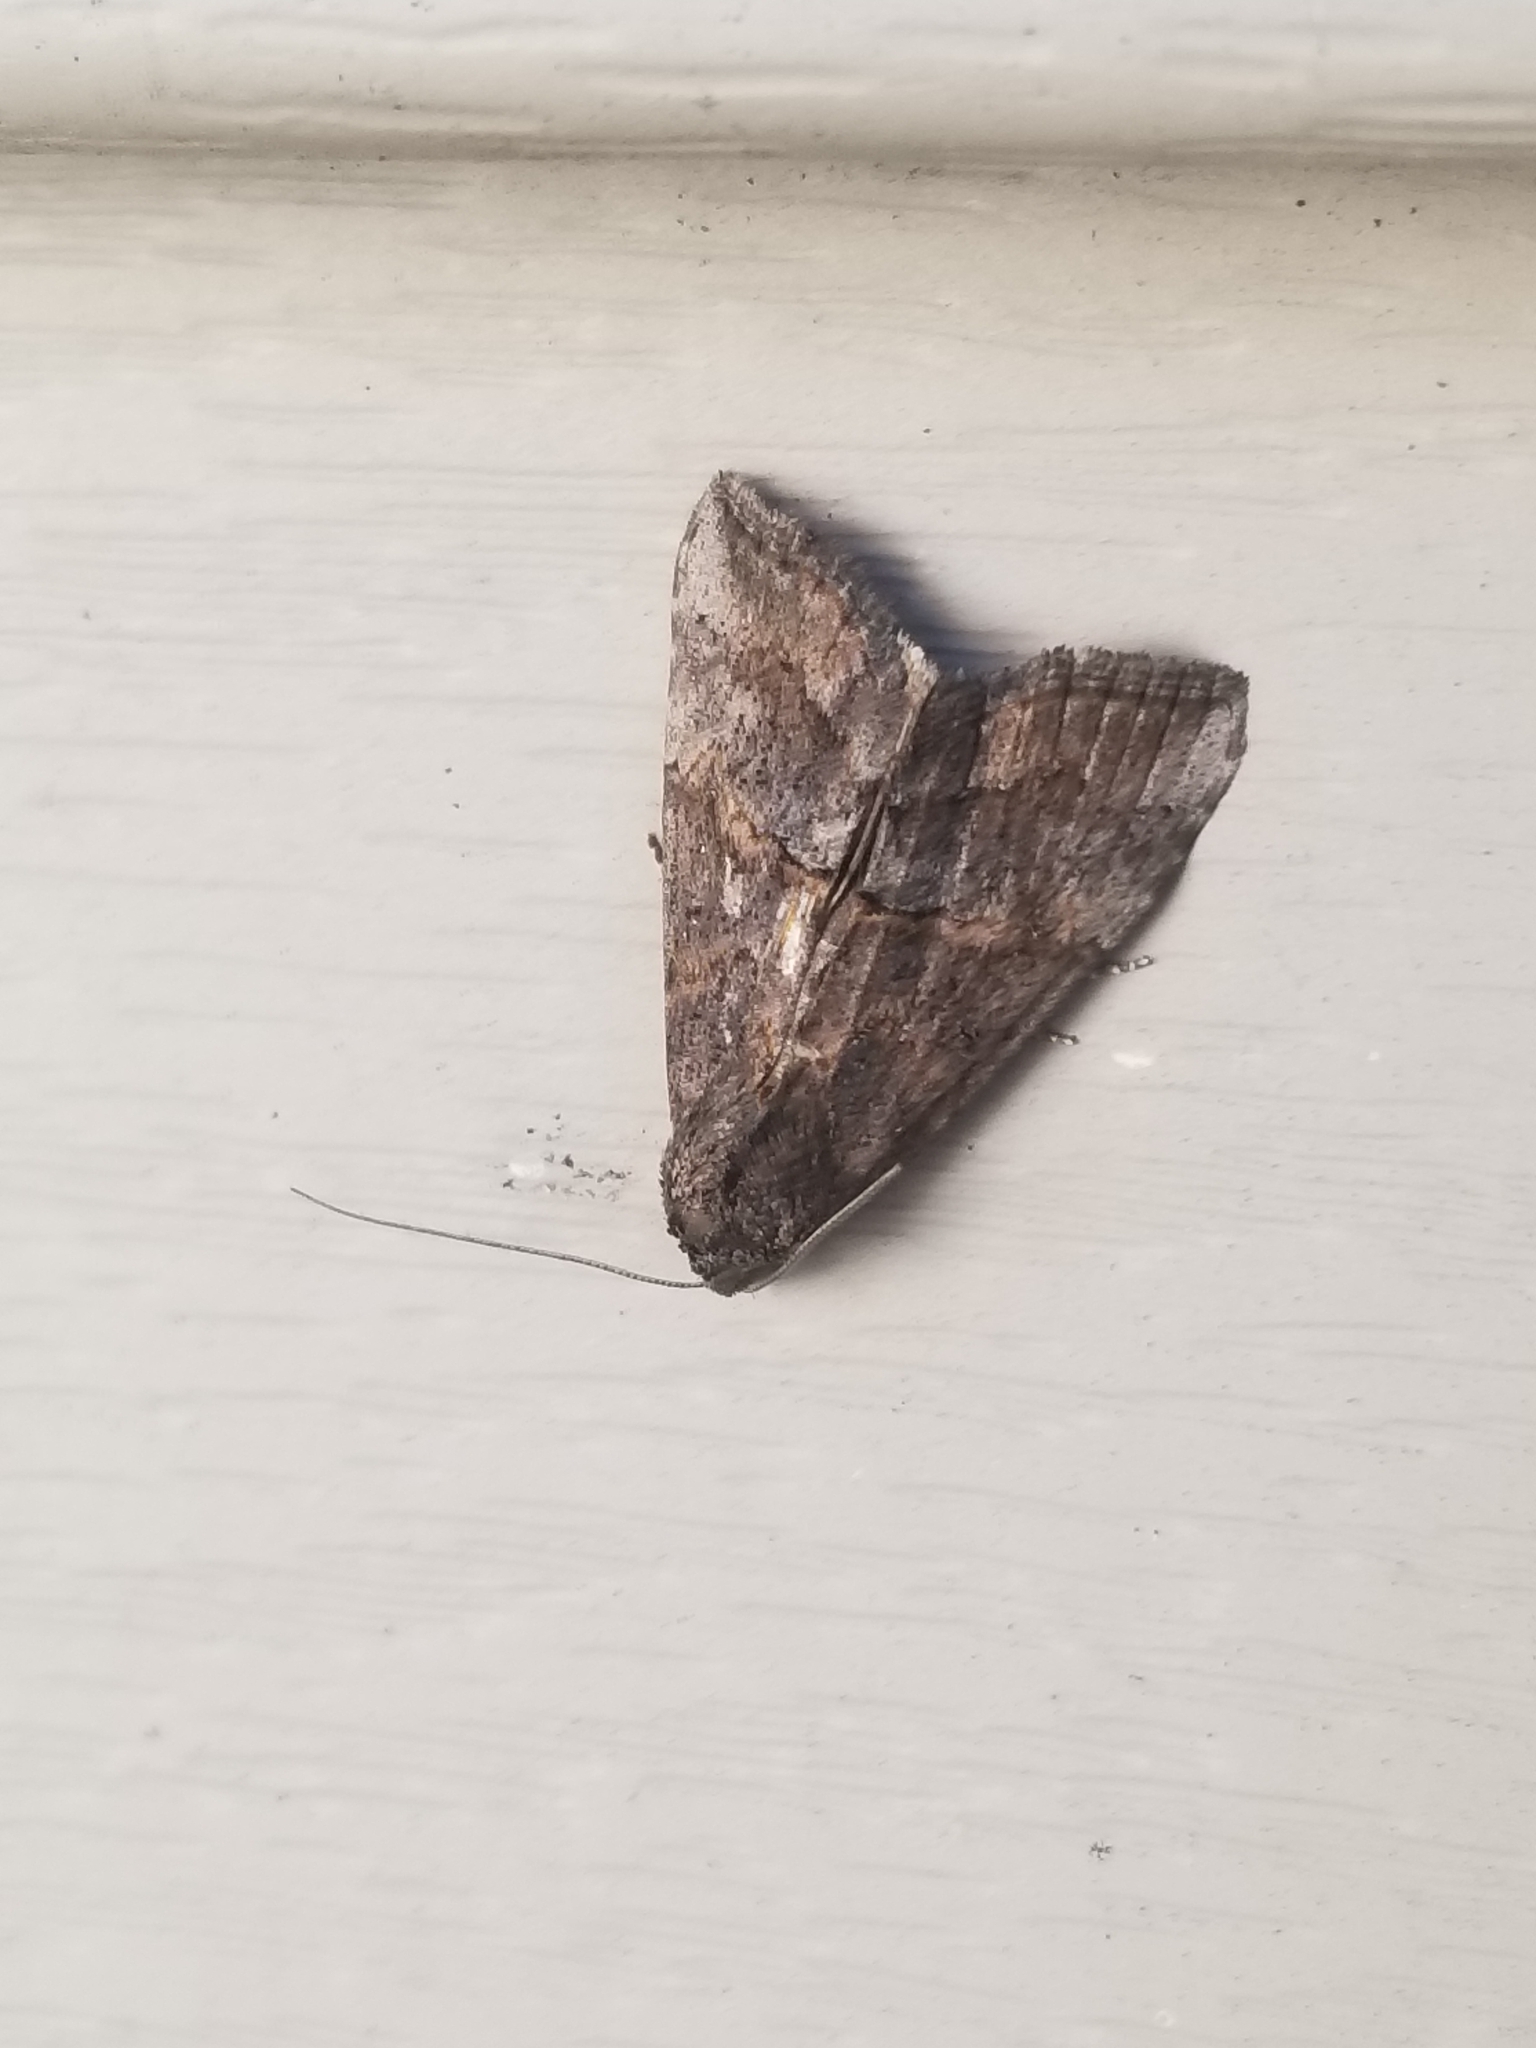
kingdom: Animalia
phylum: Arthropoda
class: Insecta
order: Lepidoptera
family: Erebidae
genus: Hypena
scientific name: Hypena scabra
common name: Green cloverworm
